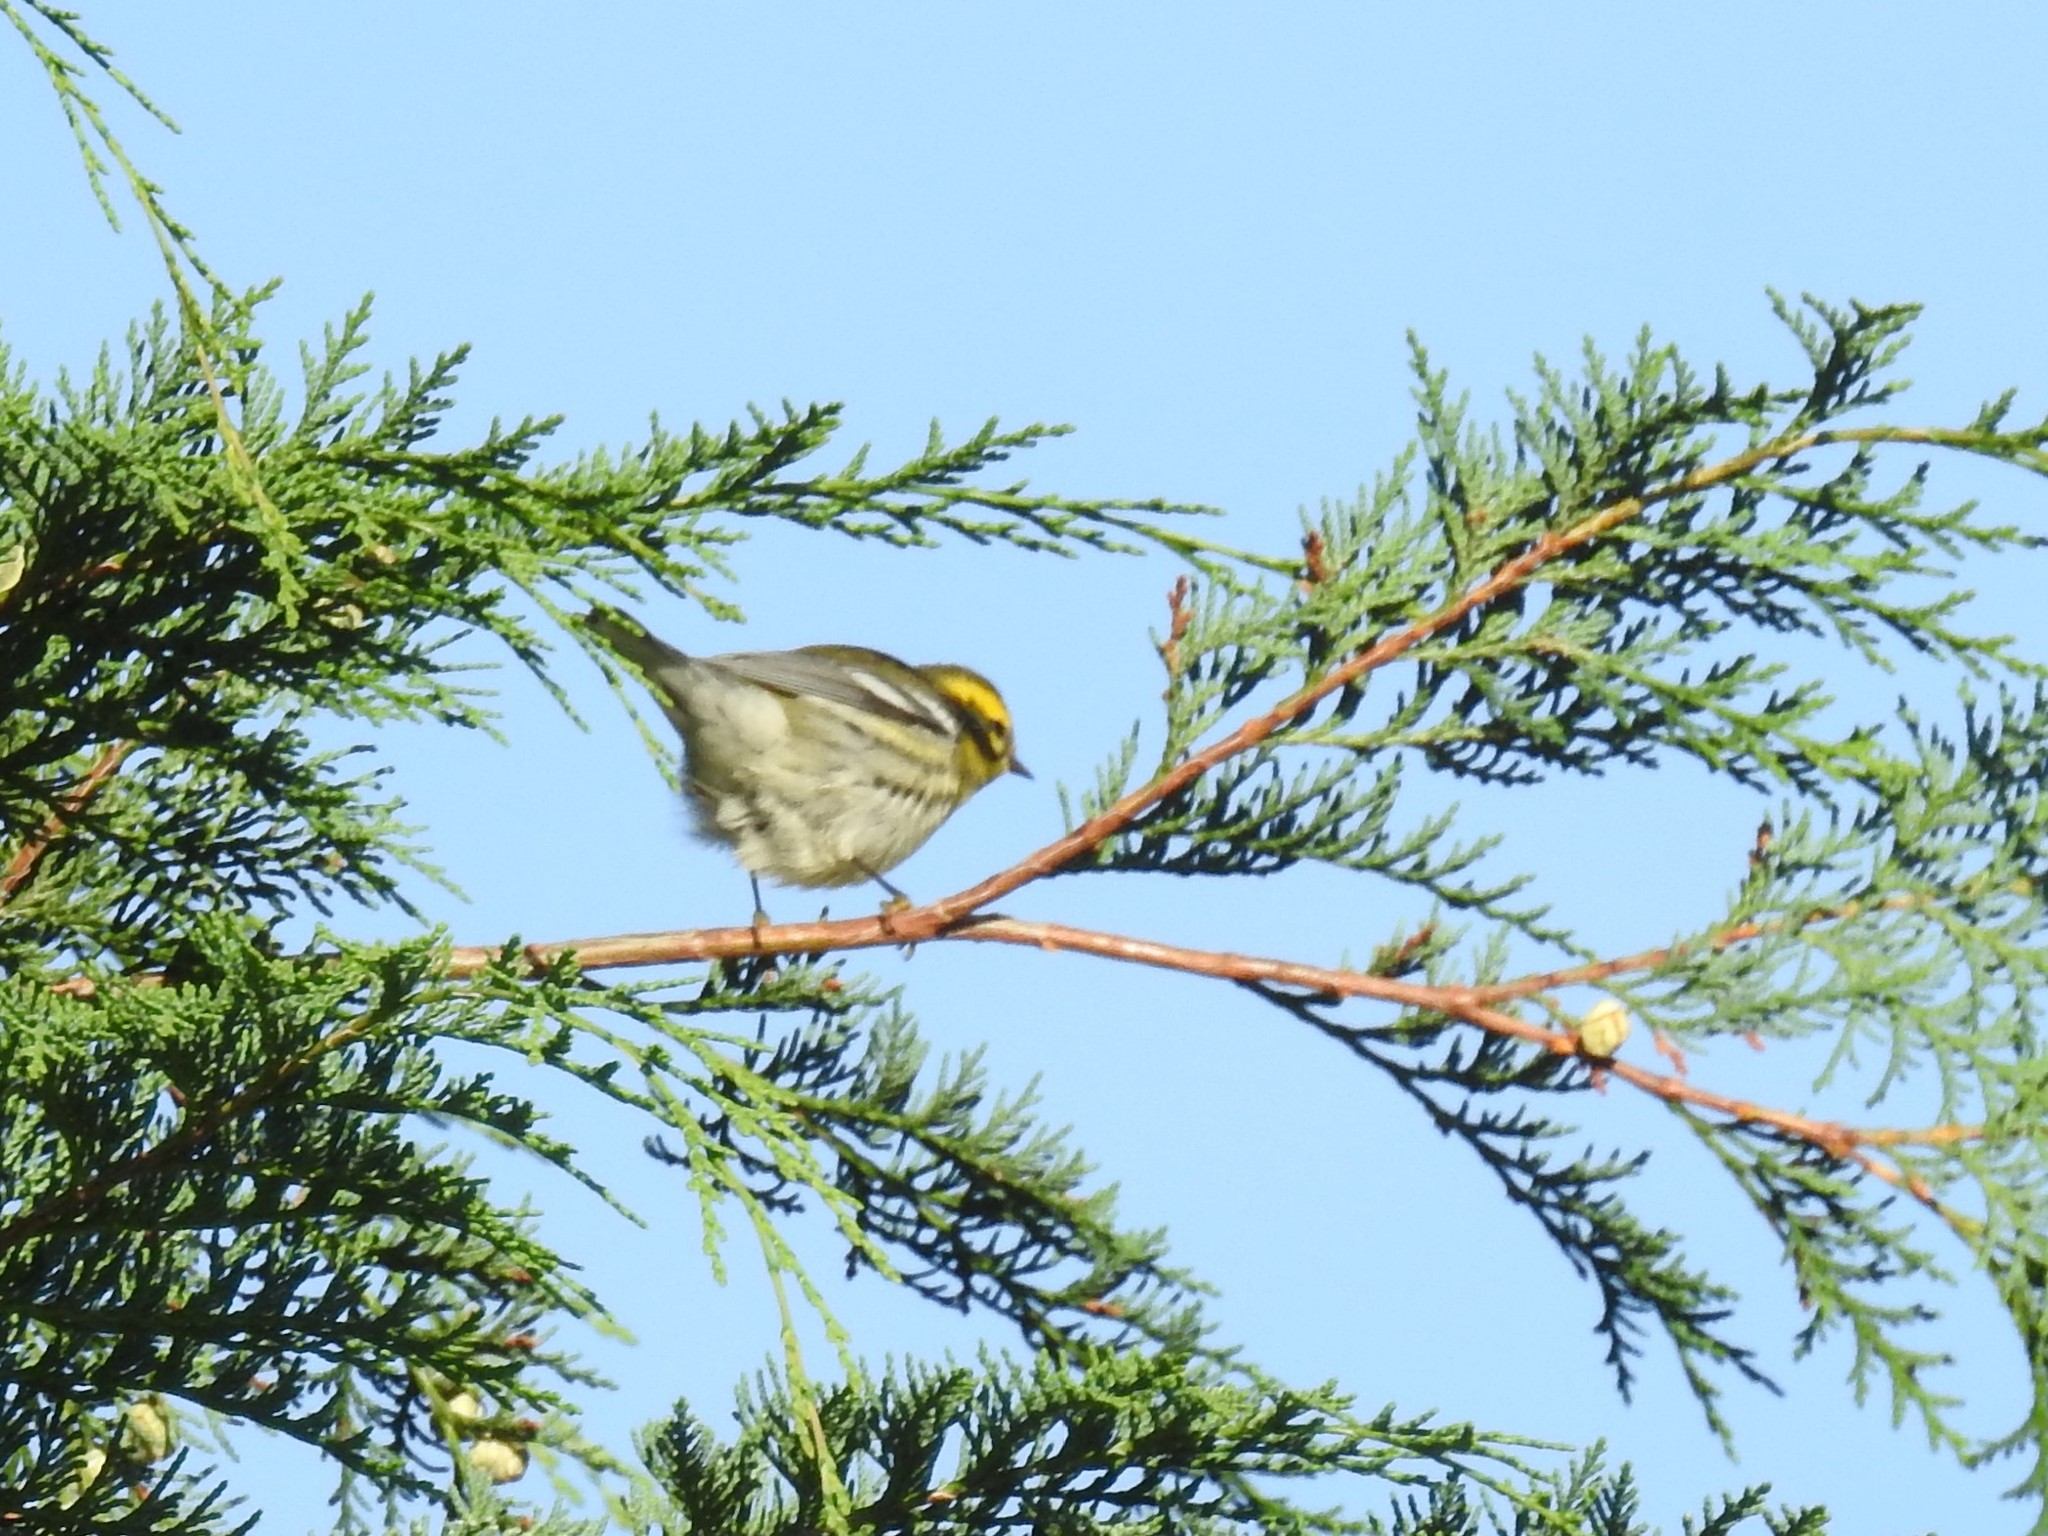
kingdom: Animalia
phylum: Chordata
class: Aves
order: Passeriformes
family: Parulidae
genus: Setophaga
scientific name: Setophaga townsendi
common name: Townsend's warbler
